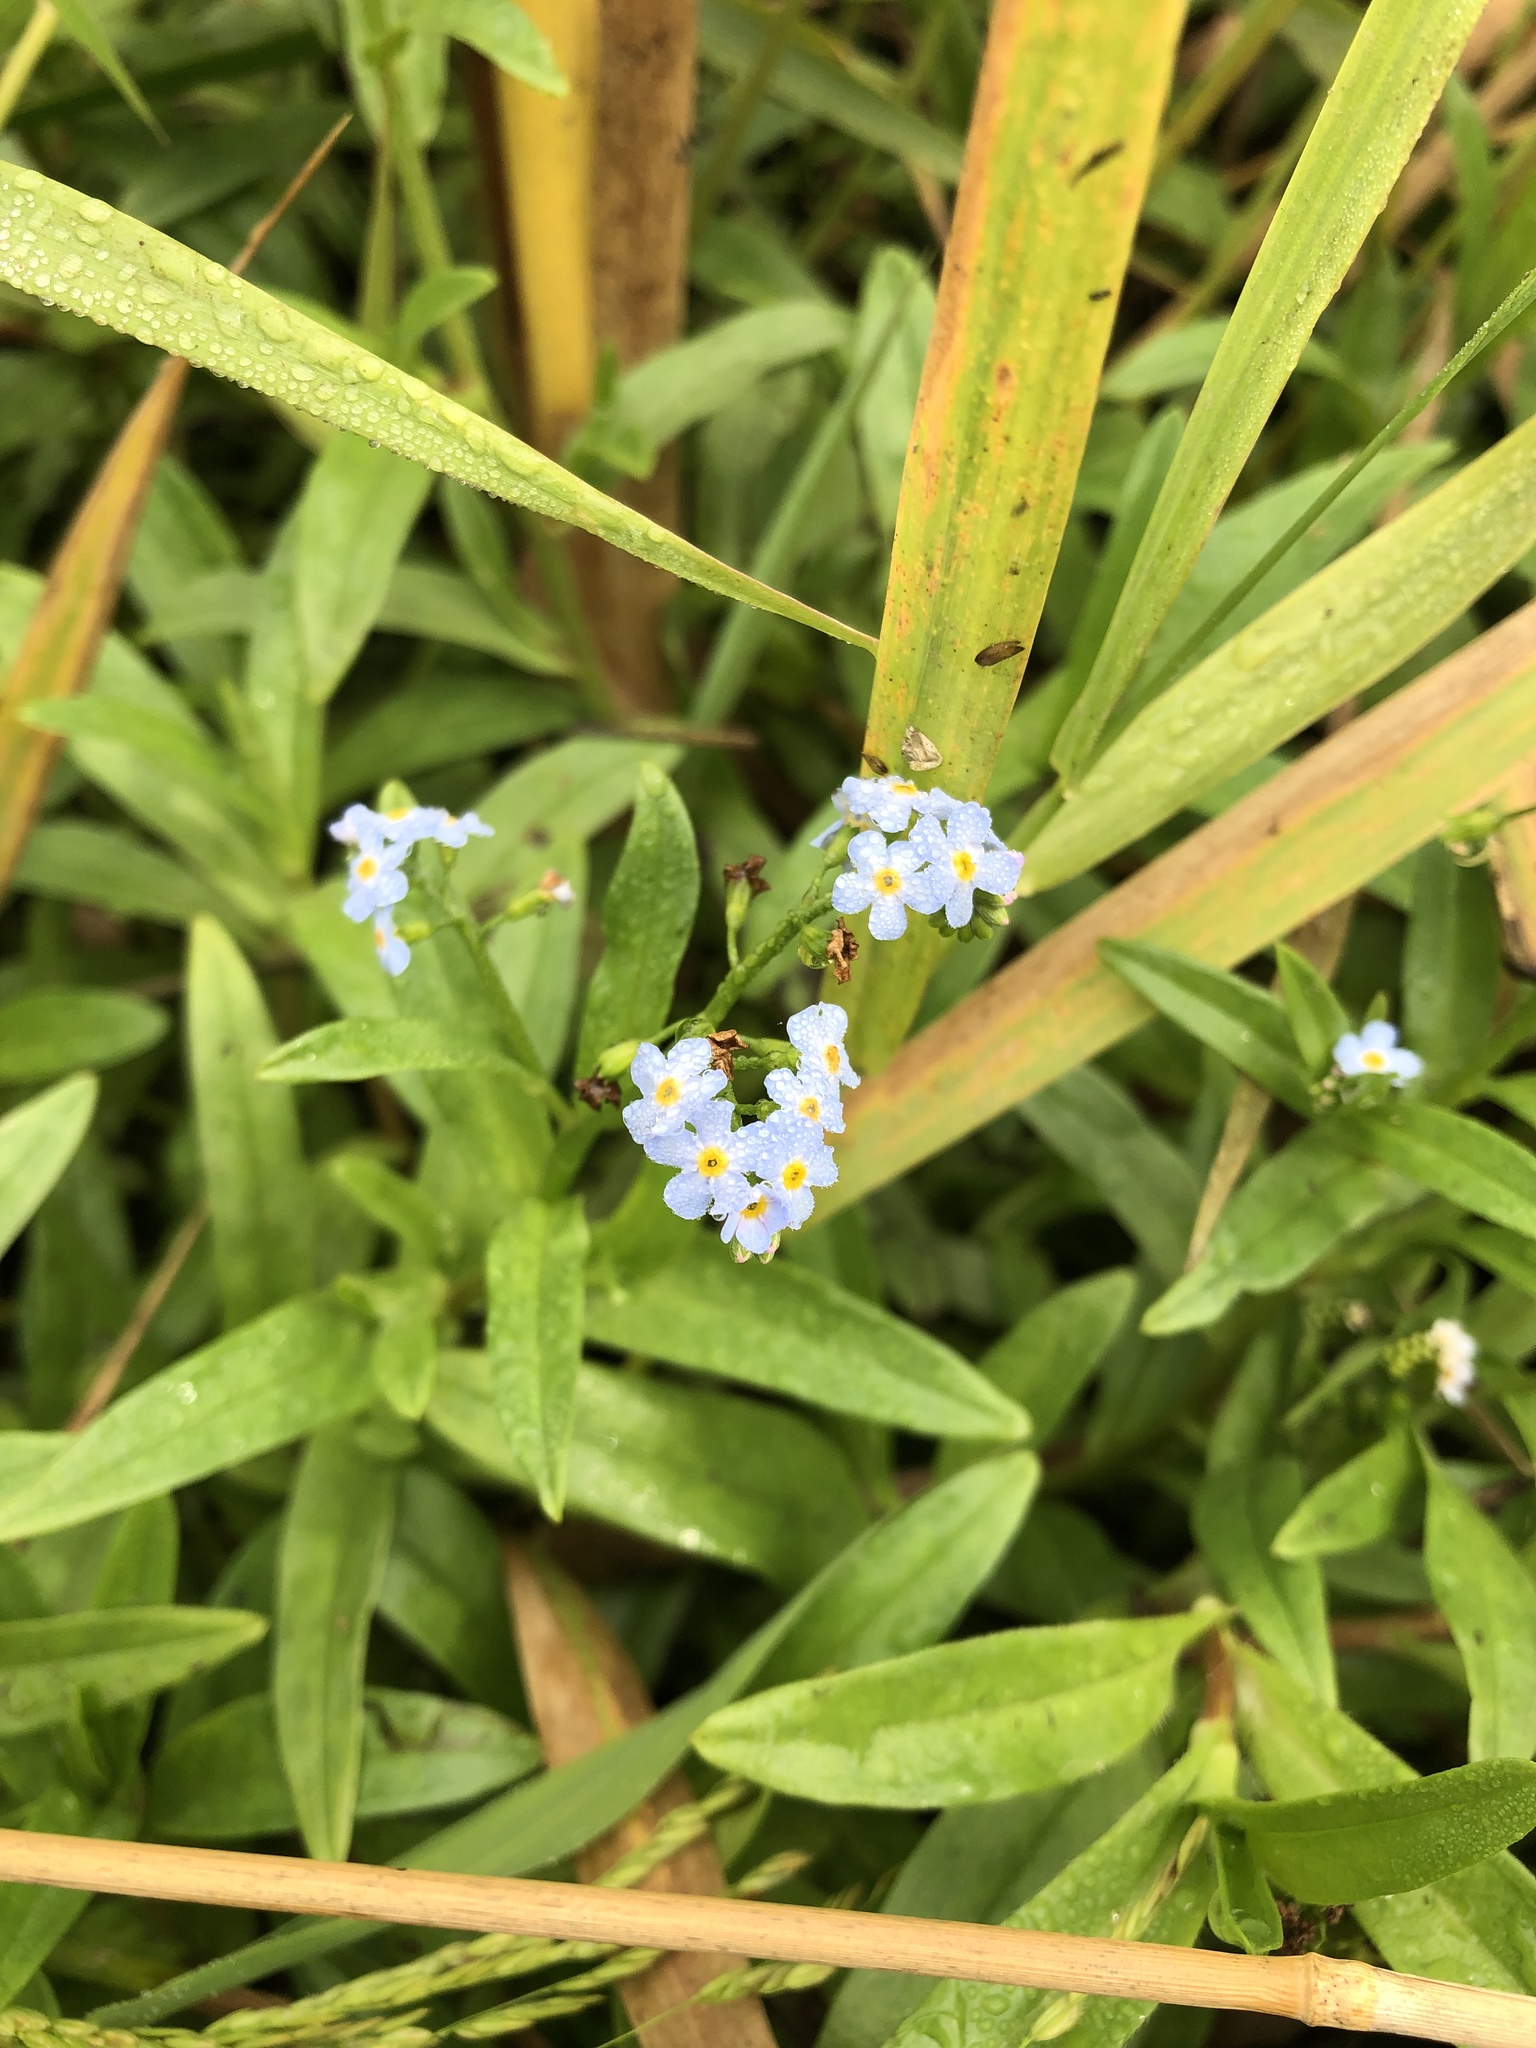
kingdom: Plantae
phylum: Tracheophyta
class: Magnoliopsida
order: Boraginales
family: Boraginaceae
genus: Myosotis
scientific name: Myosotis scorpioides
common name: Water forget-me-not
